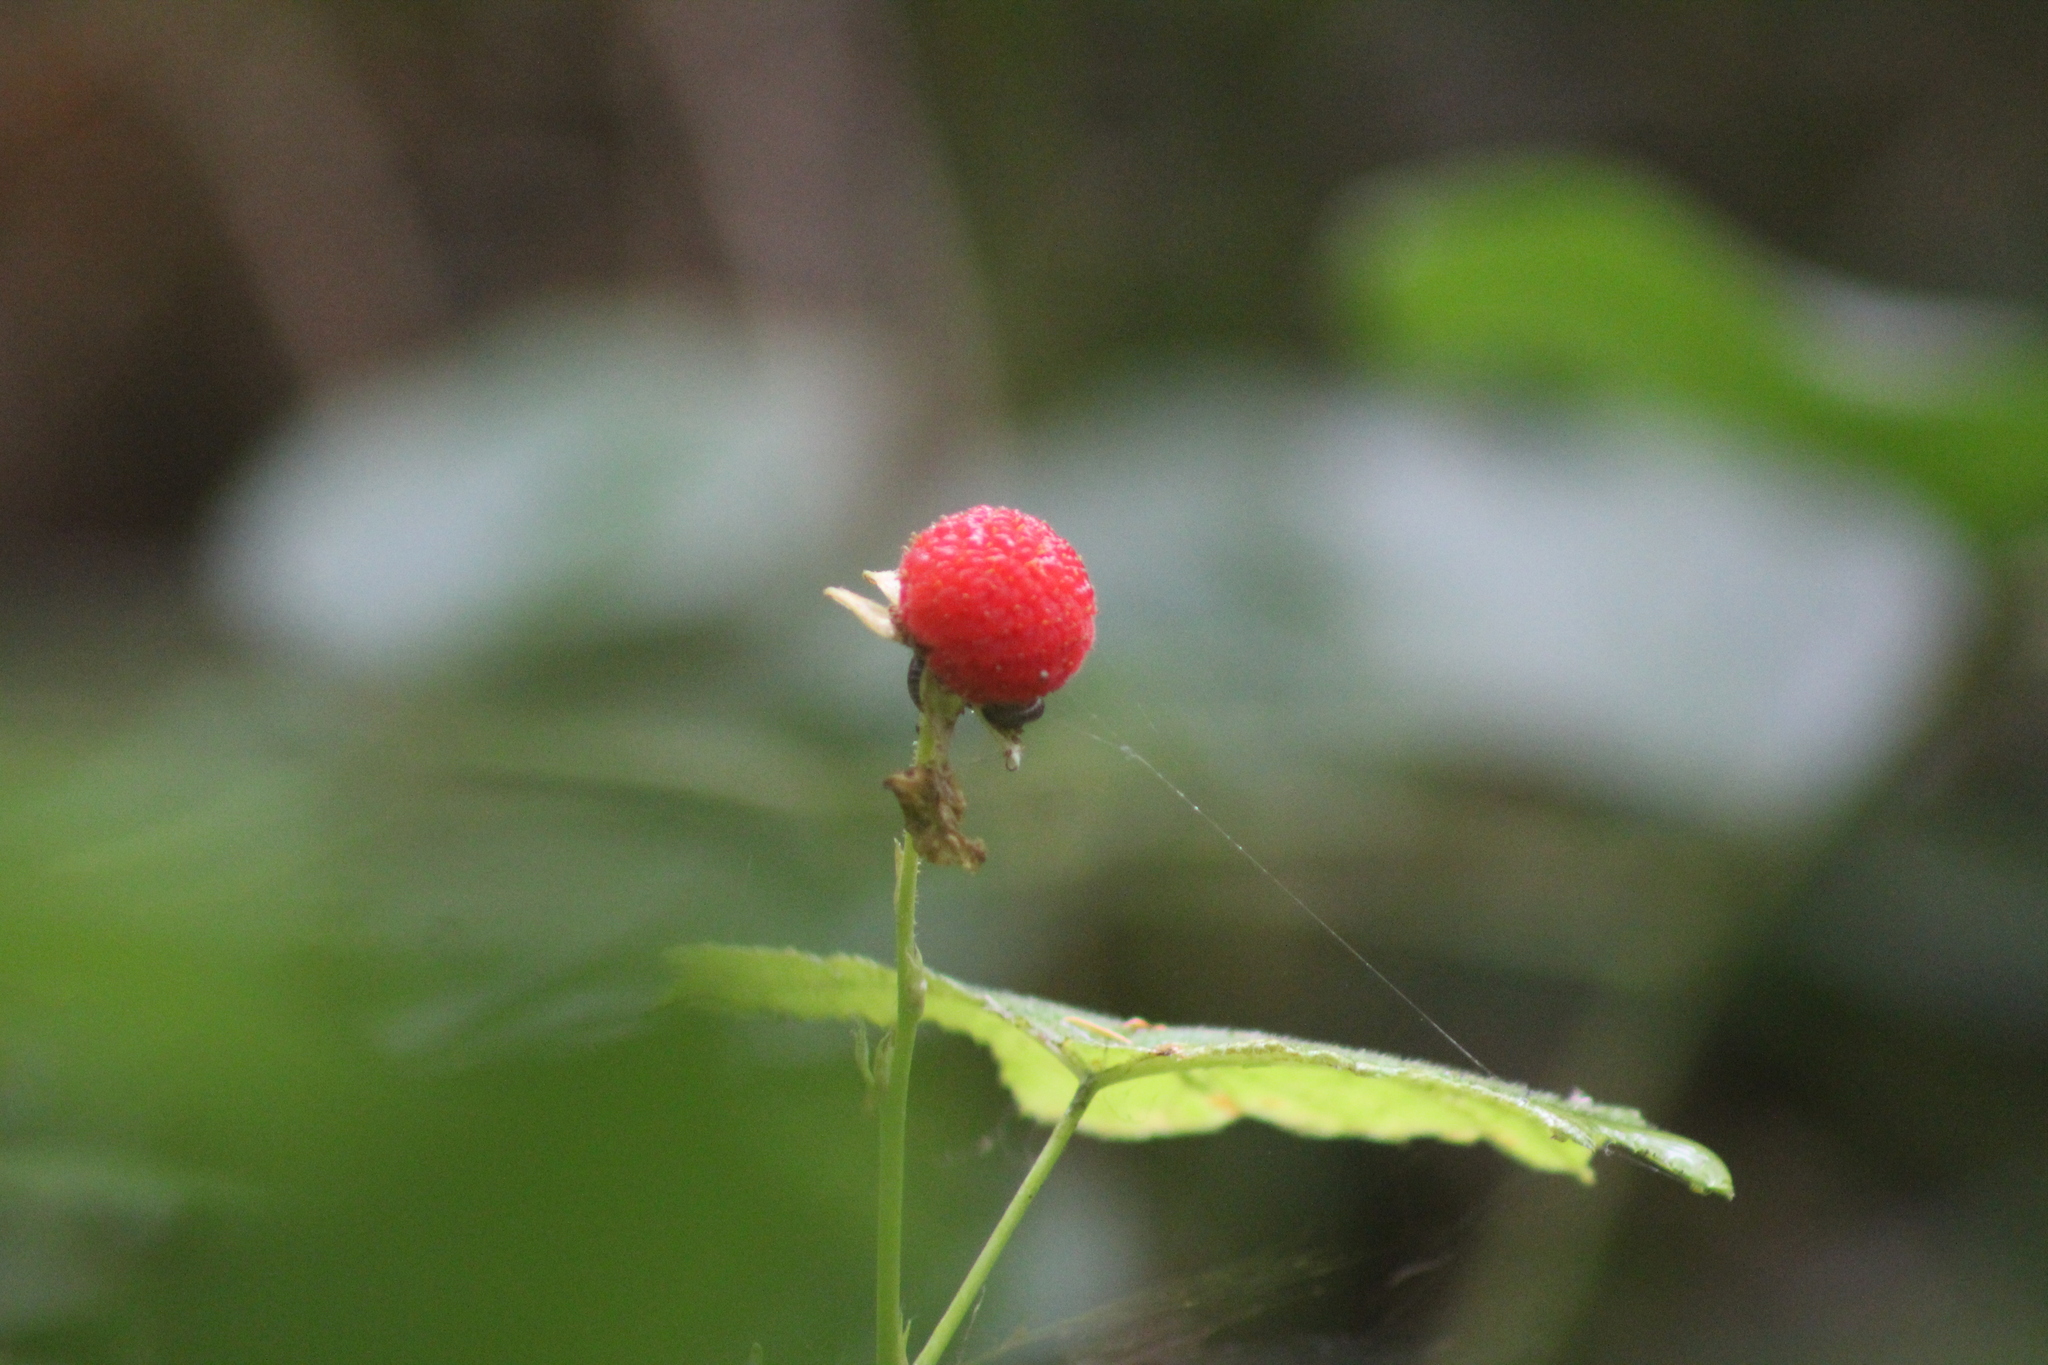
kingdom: Plantae
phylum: Tracheophyta
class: Magnoliopsida
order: Rosales
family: Rosaceae
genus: Rubus
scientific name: Rubus parviflorus
